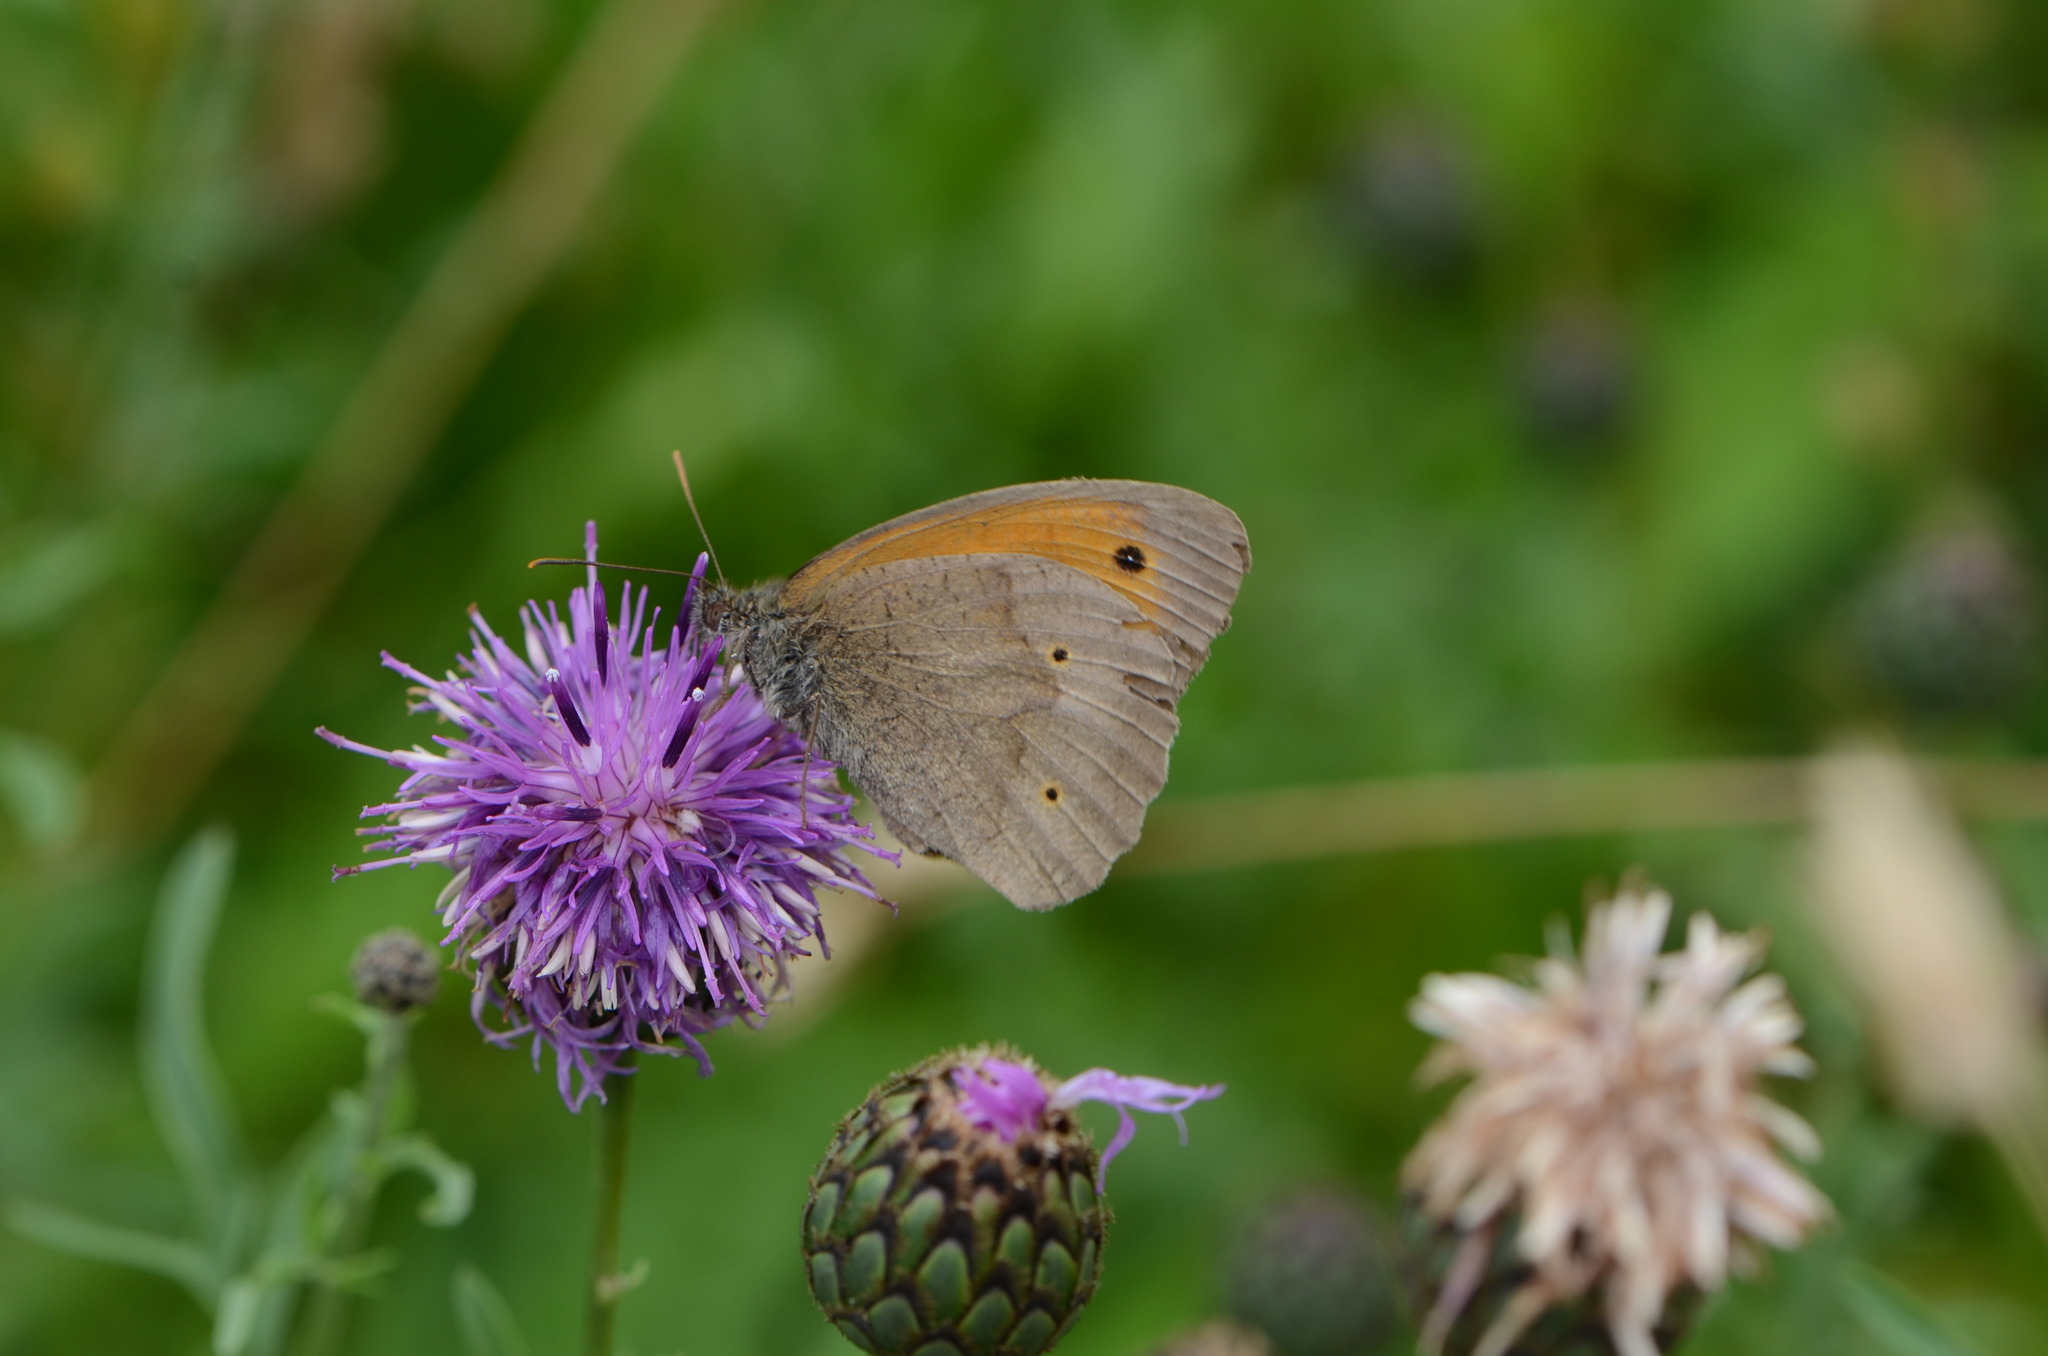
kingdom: Animalia
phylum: Arthropoda
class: Insecta
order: Lepidoptera
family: Nymphalidae
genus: Maniola
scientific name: Maniola jurtina
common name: Meadow brown
